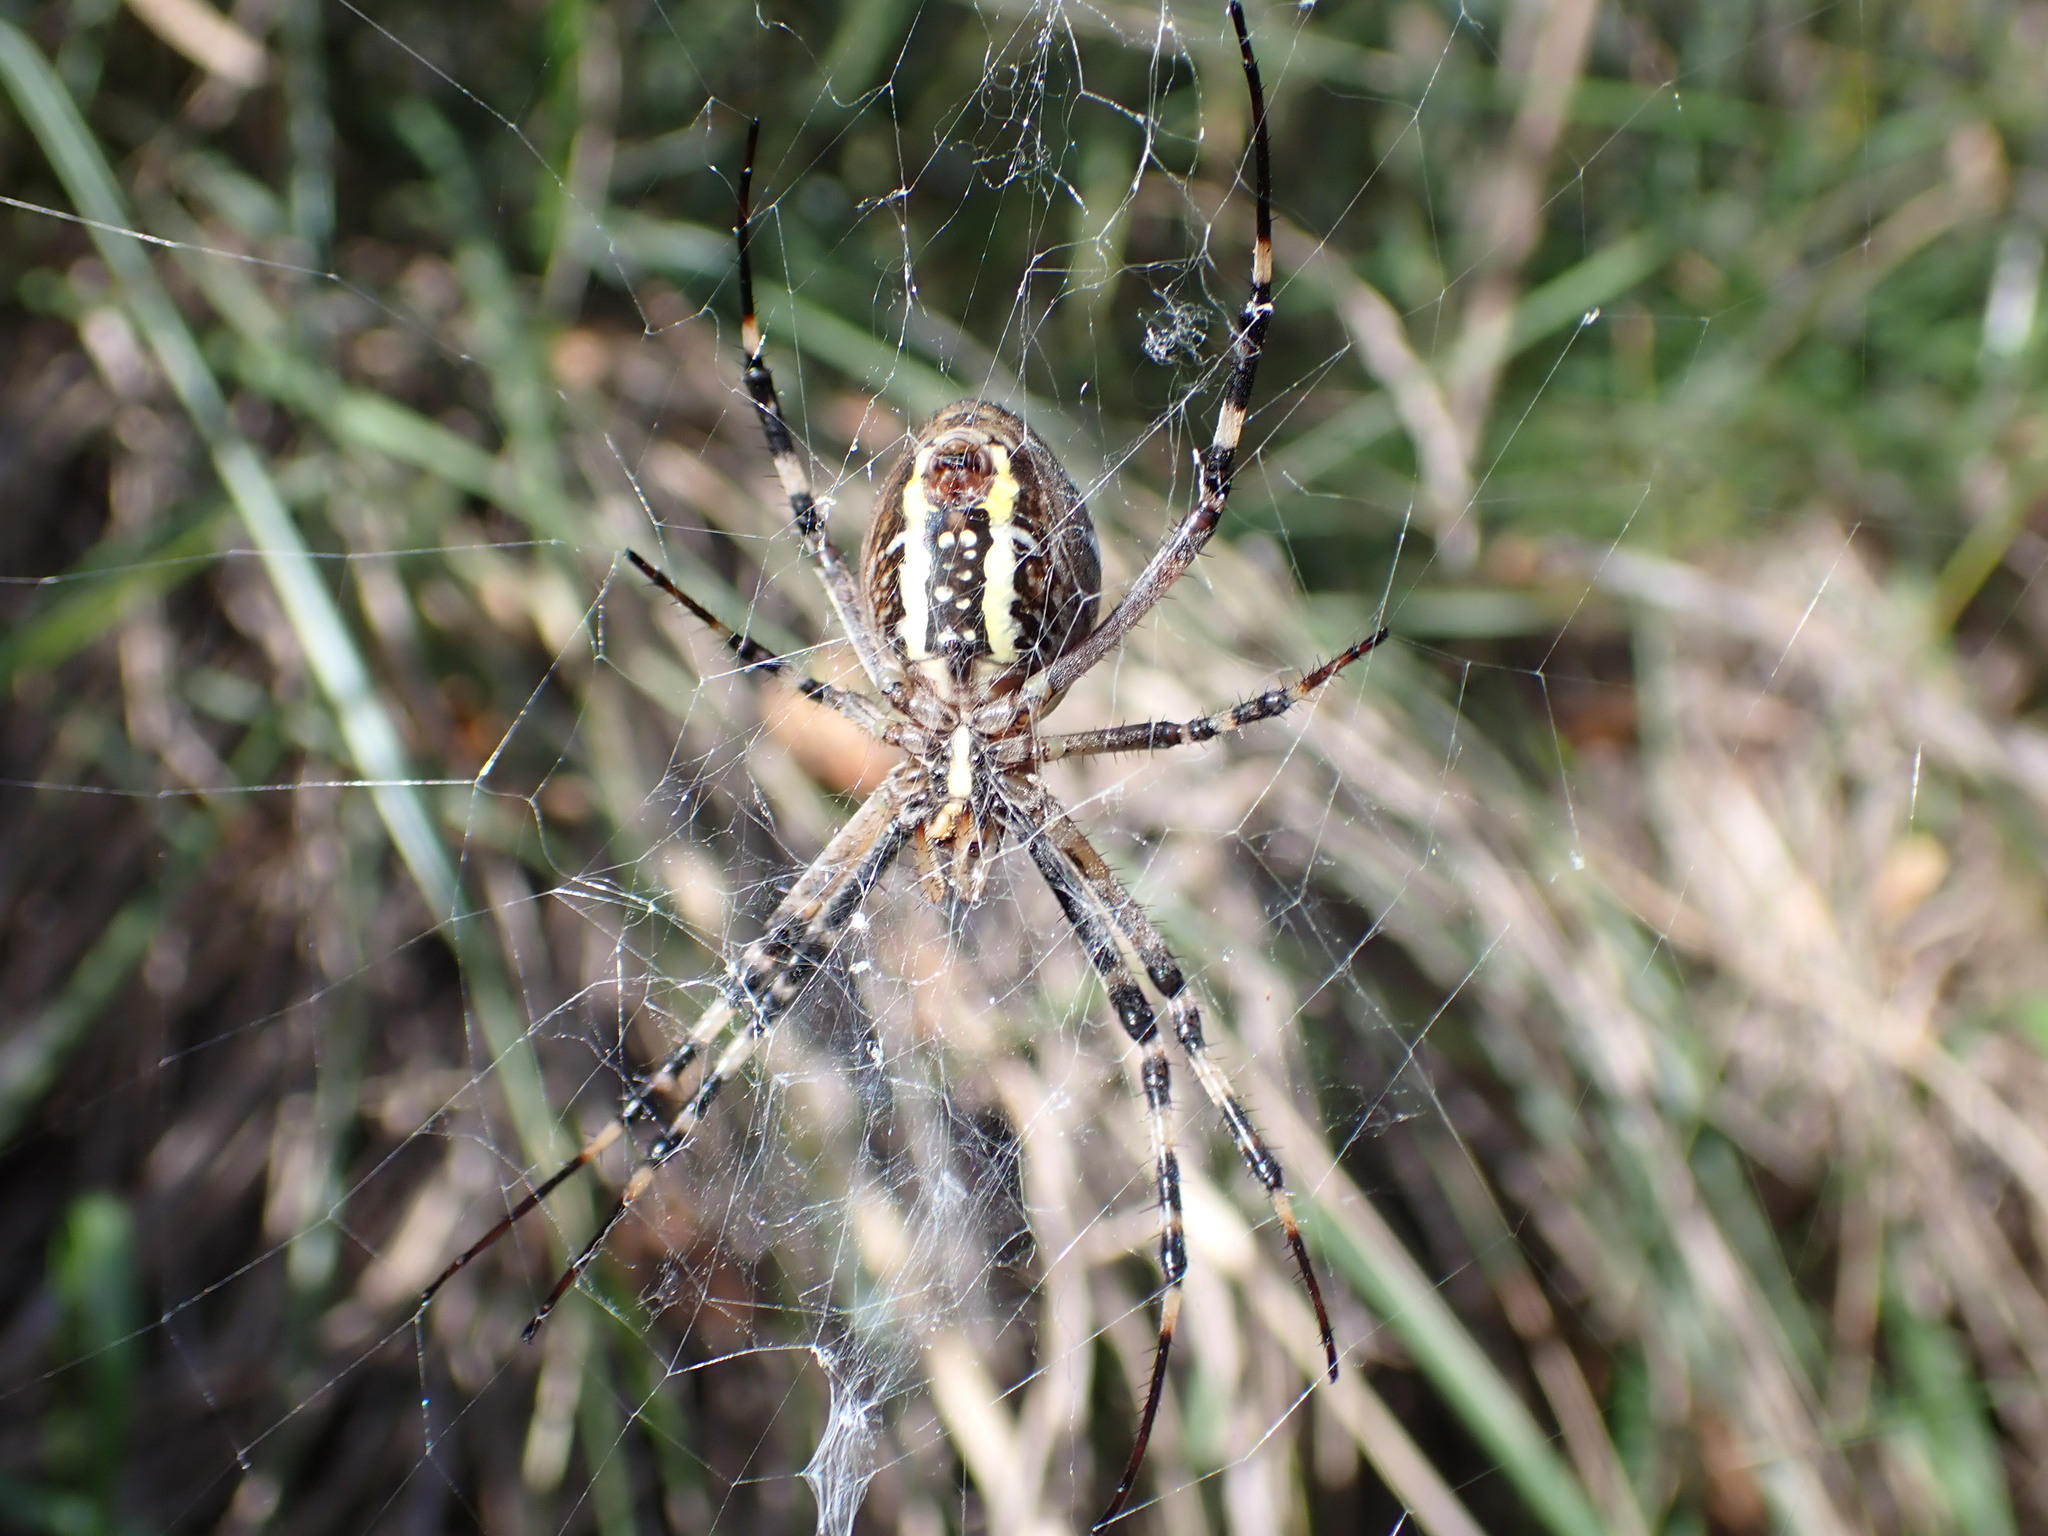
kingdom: Animalia
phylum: Arthropoda
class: Arachnida
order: Araneae
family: Araneidae
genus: Argiope
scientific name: Argiope bruennichi
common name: Wasp spider
